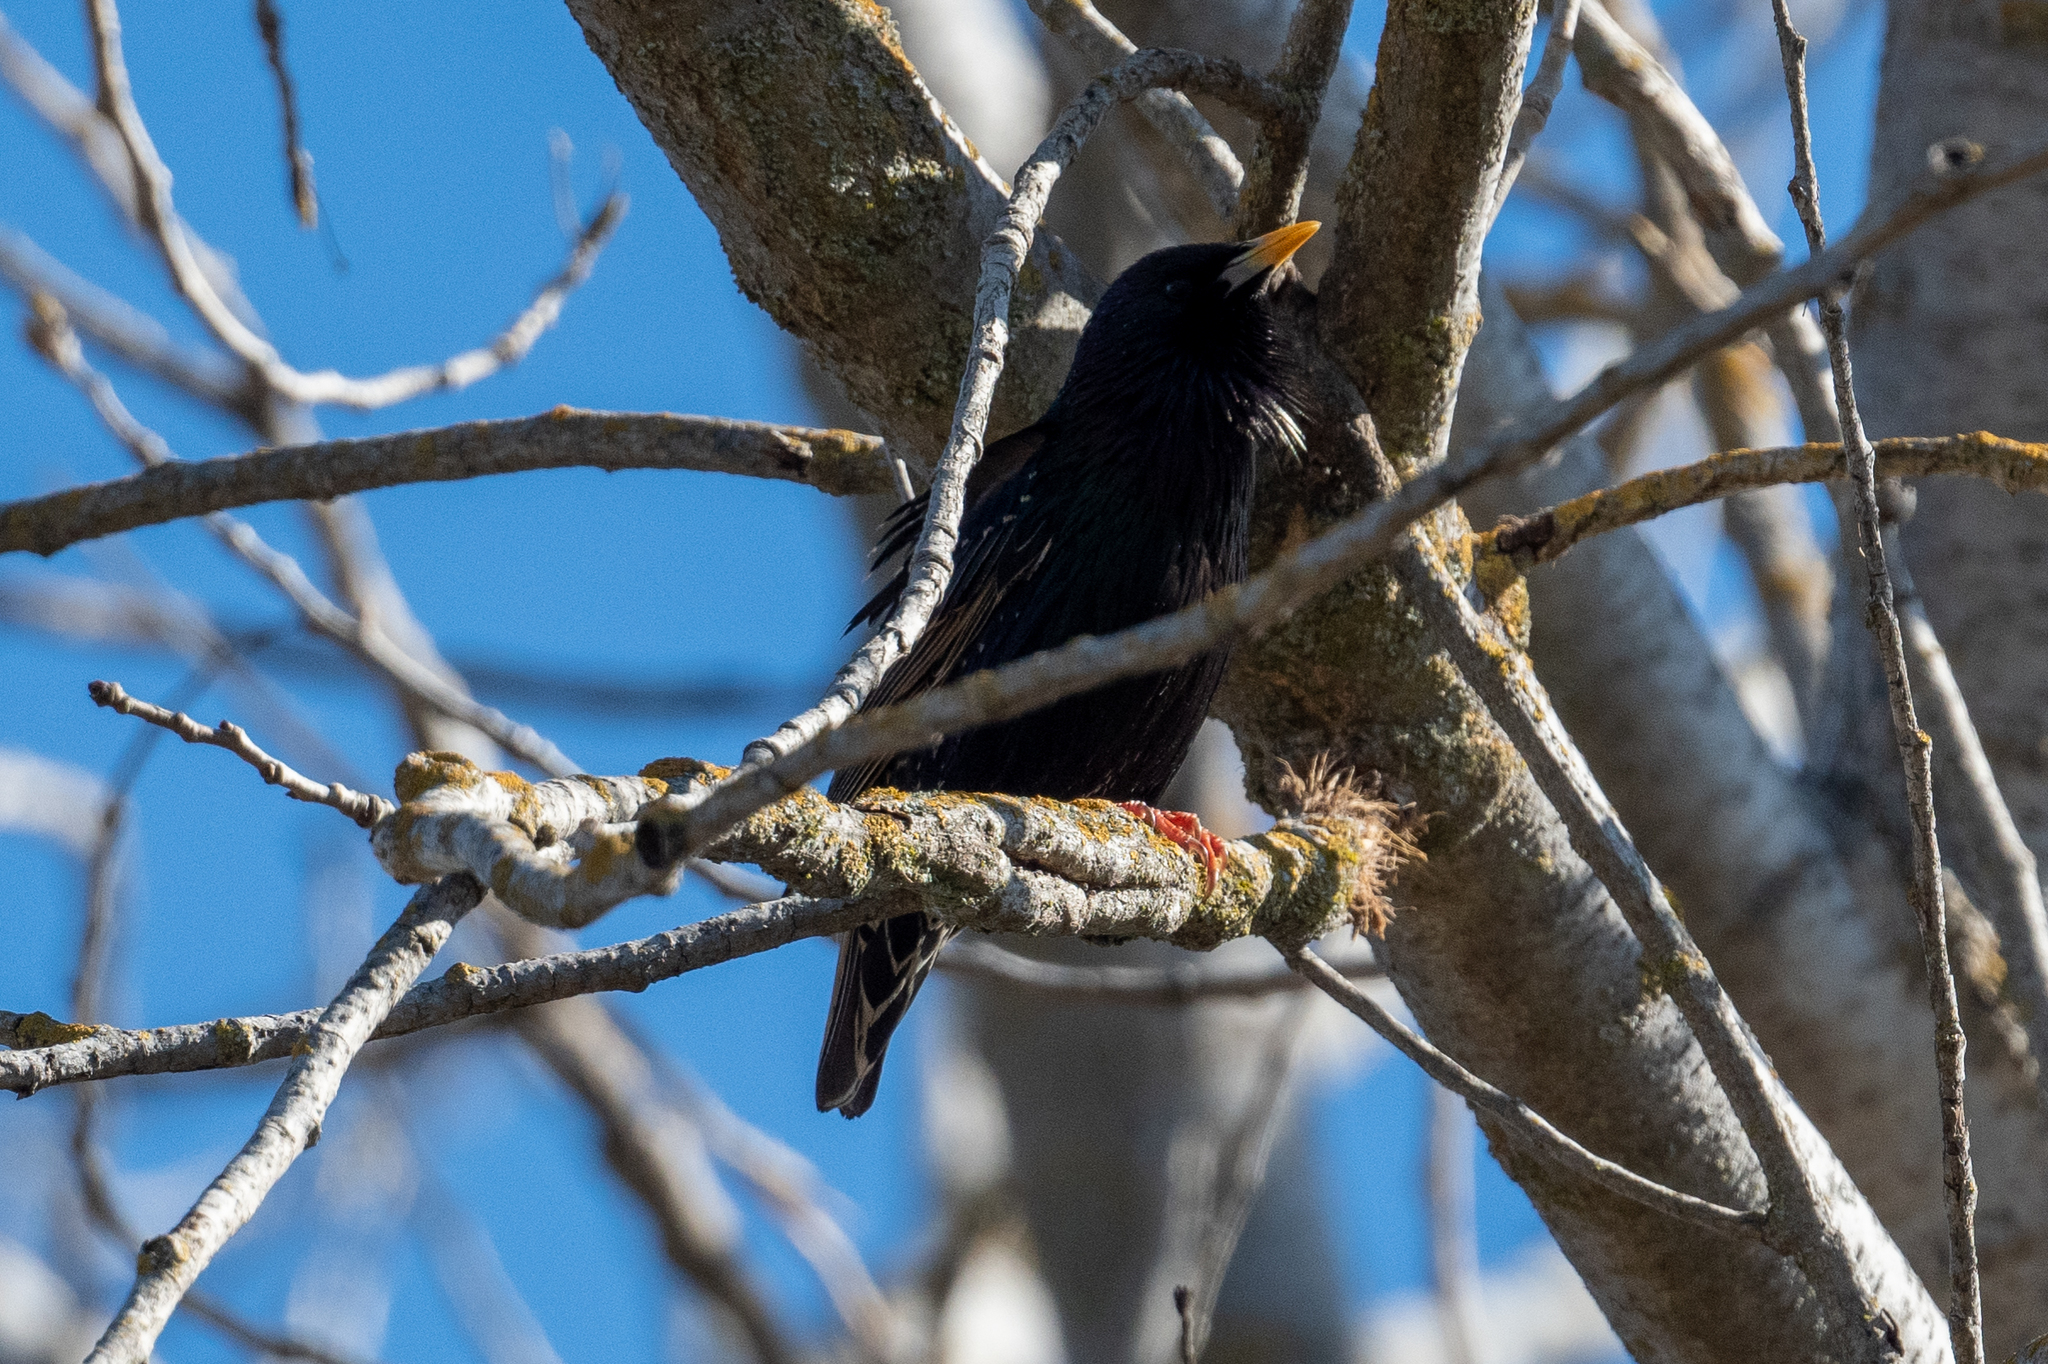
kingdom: Animalia
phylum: Chordata
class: Aves
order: Passeriformes
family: Sturnidae
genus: Sturnus
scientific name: Sturnus vulgaris
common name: Common starling
